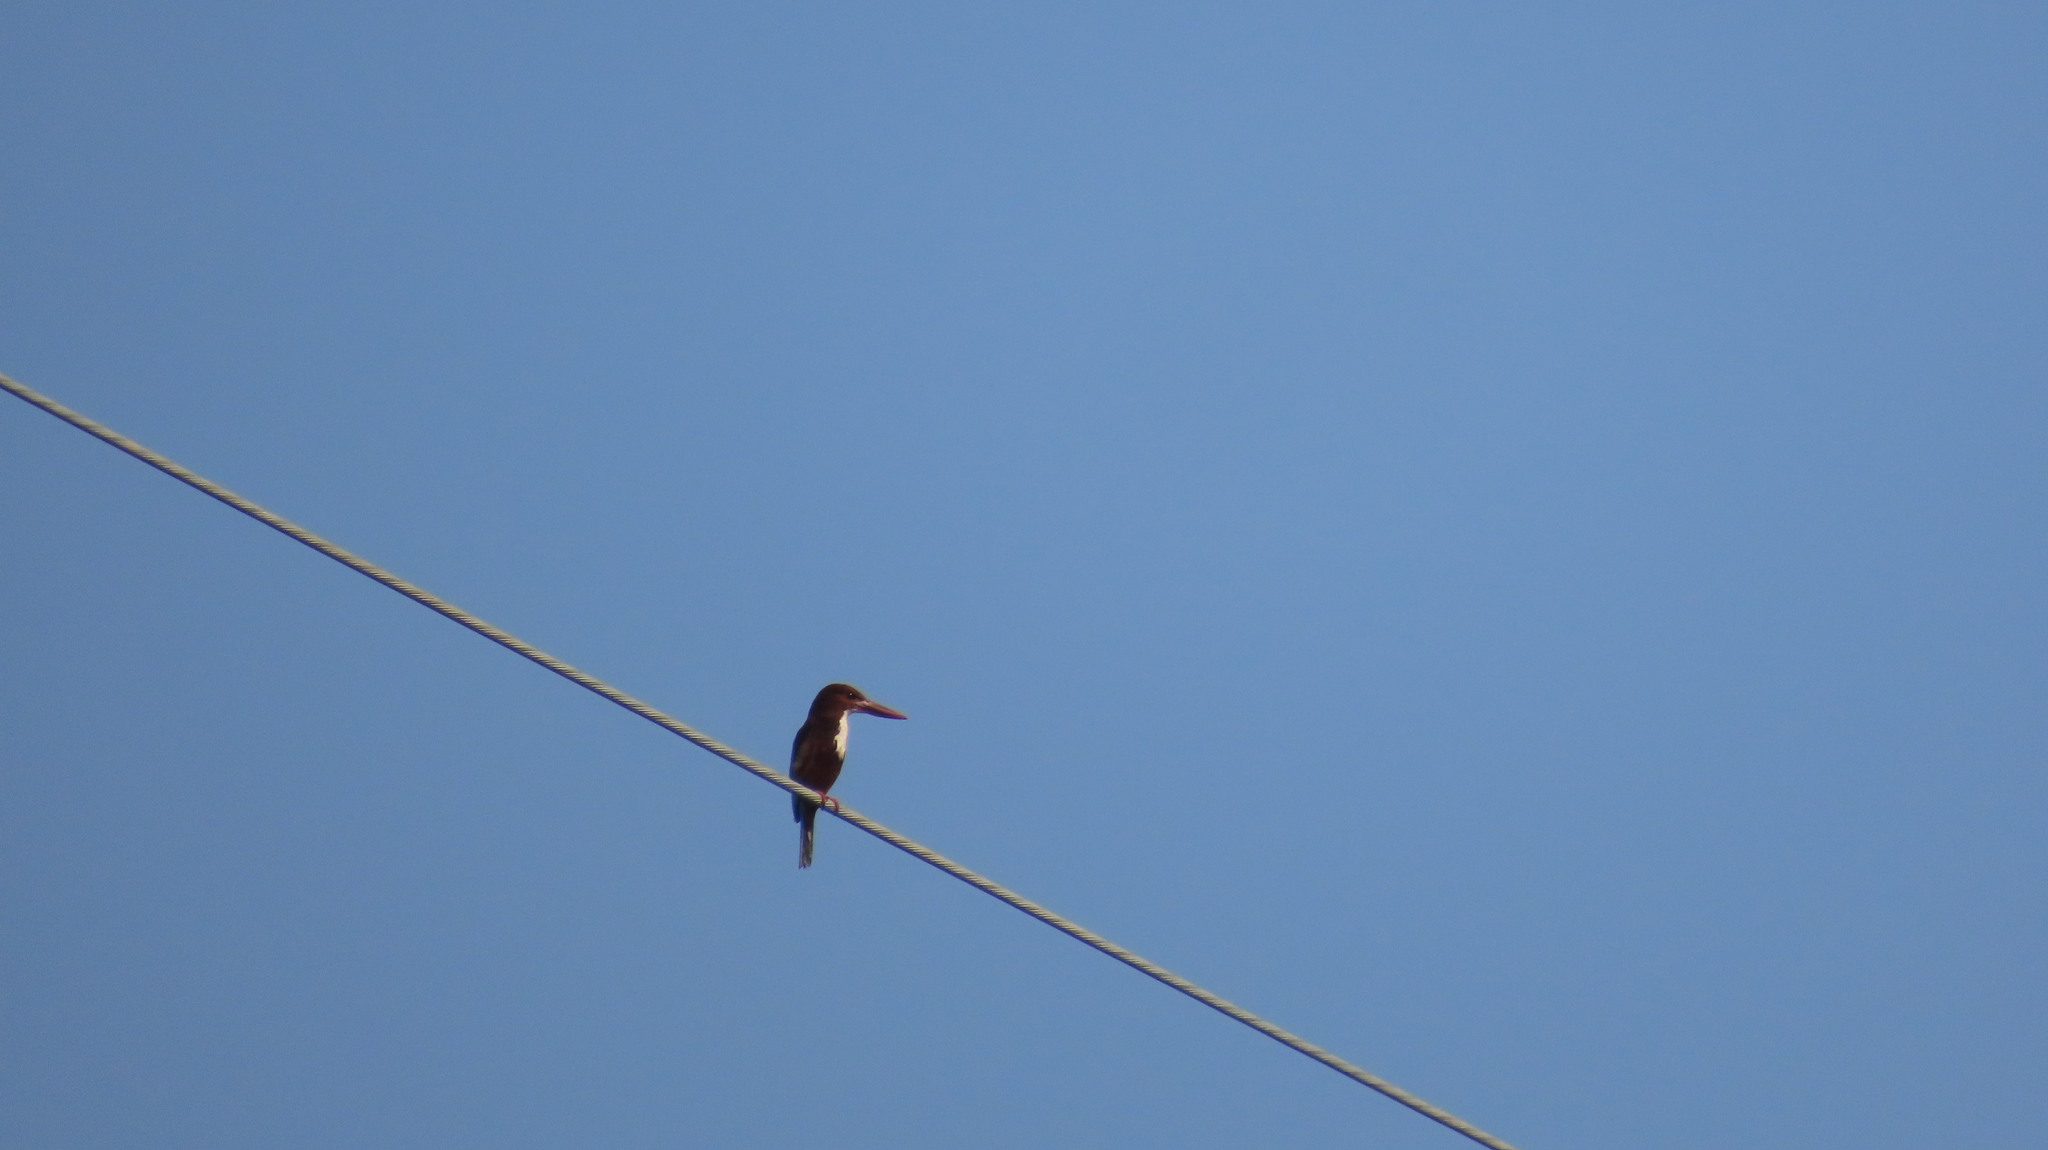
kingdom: Animalia
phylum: Chordata
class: Aves
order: Coraciiformes
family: Alcedinidae
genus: Halcyon
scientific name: Halcyon smyrnensis
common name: White-throated kingfisher
